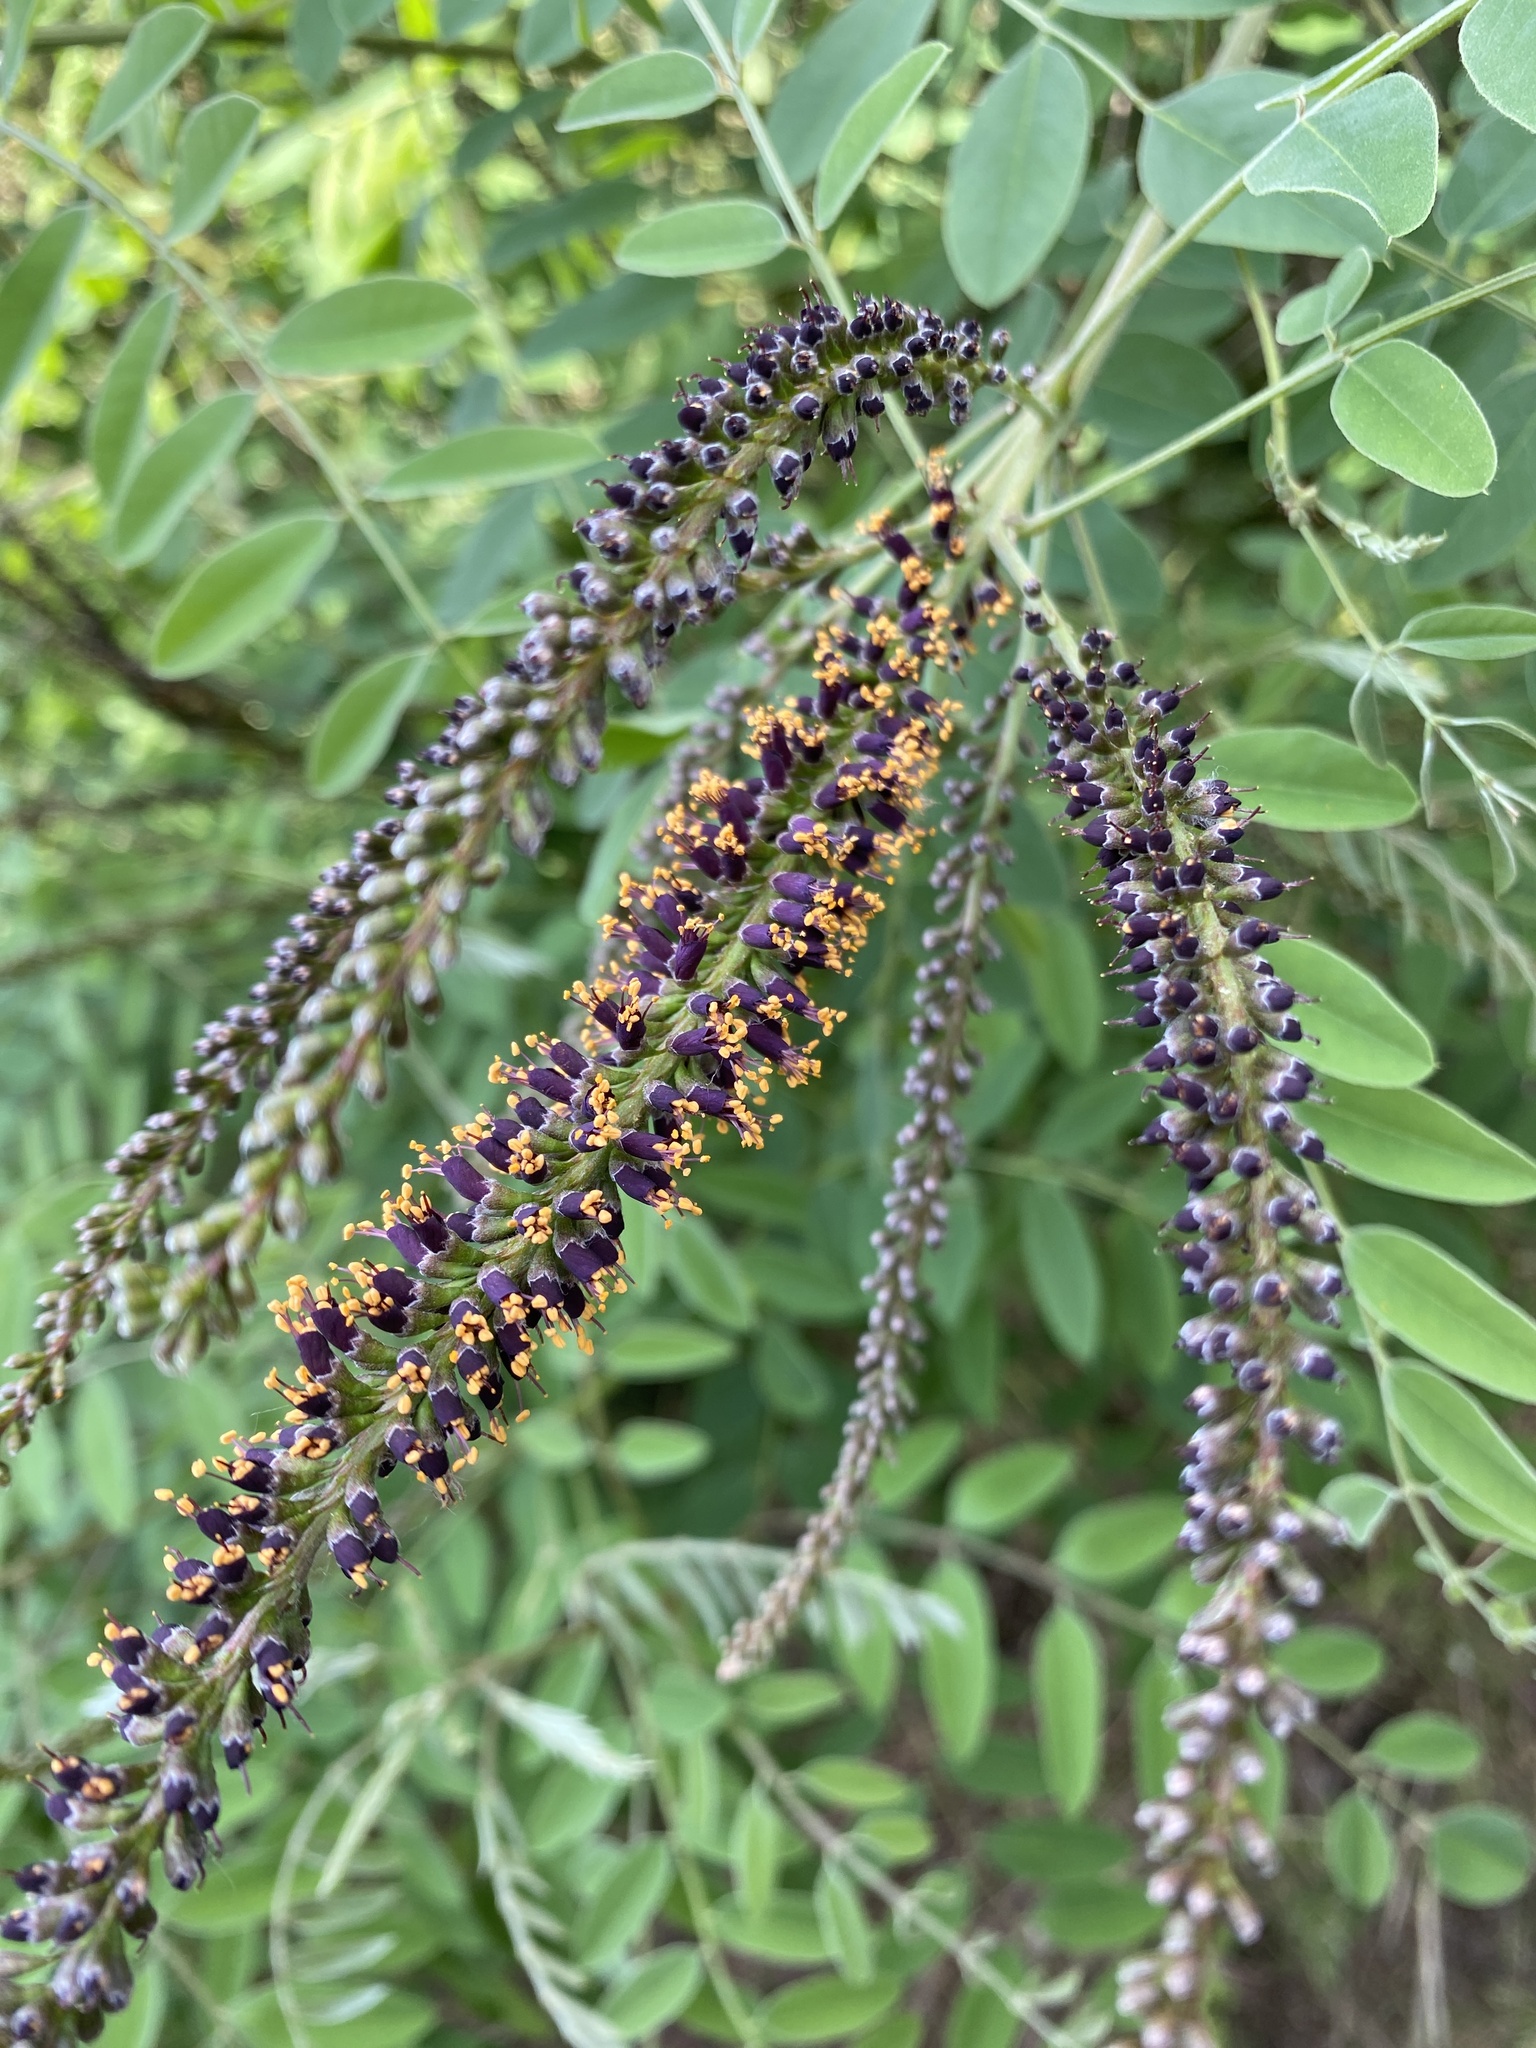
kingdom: Plantae
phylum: Tracheophyta
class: Magnoliopsida
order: Fabales
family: Fabaceae
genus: Amorpha
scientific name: Amorpha fruticosa
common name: False indigo
